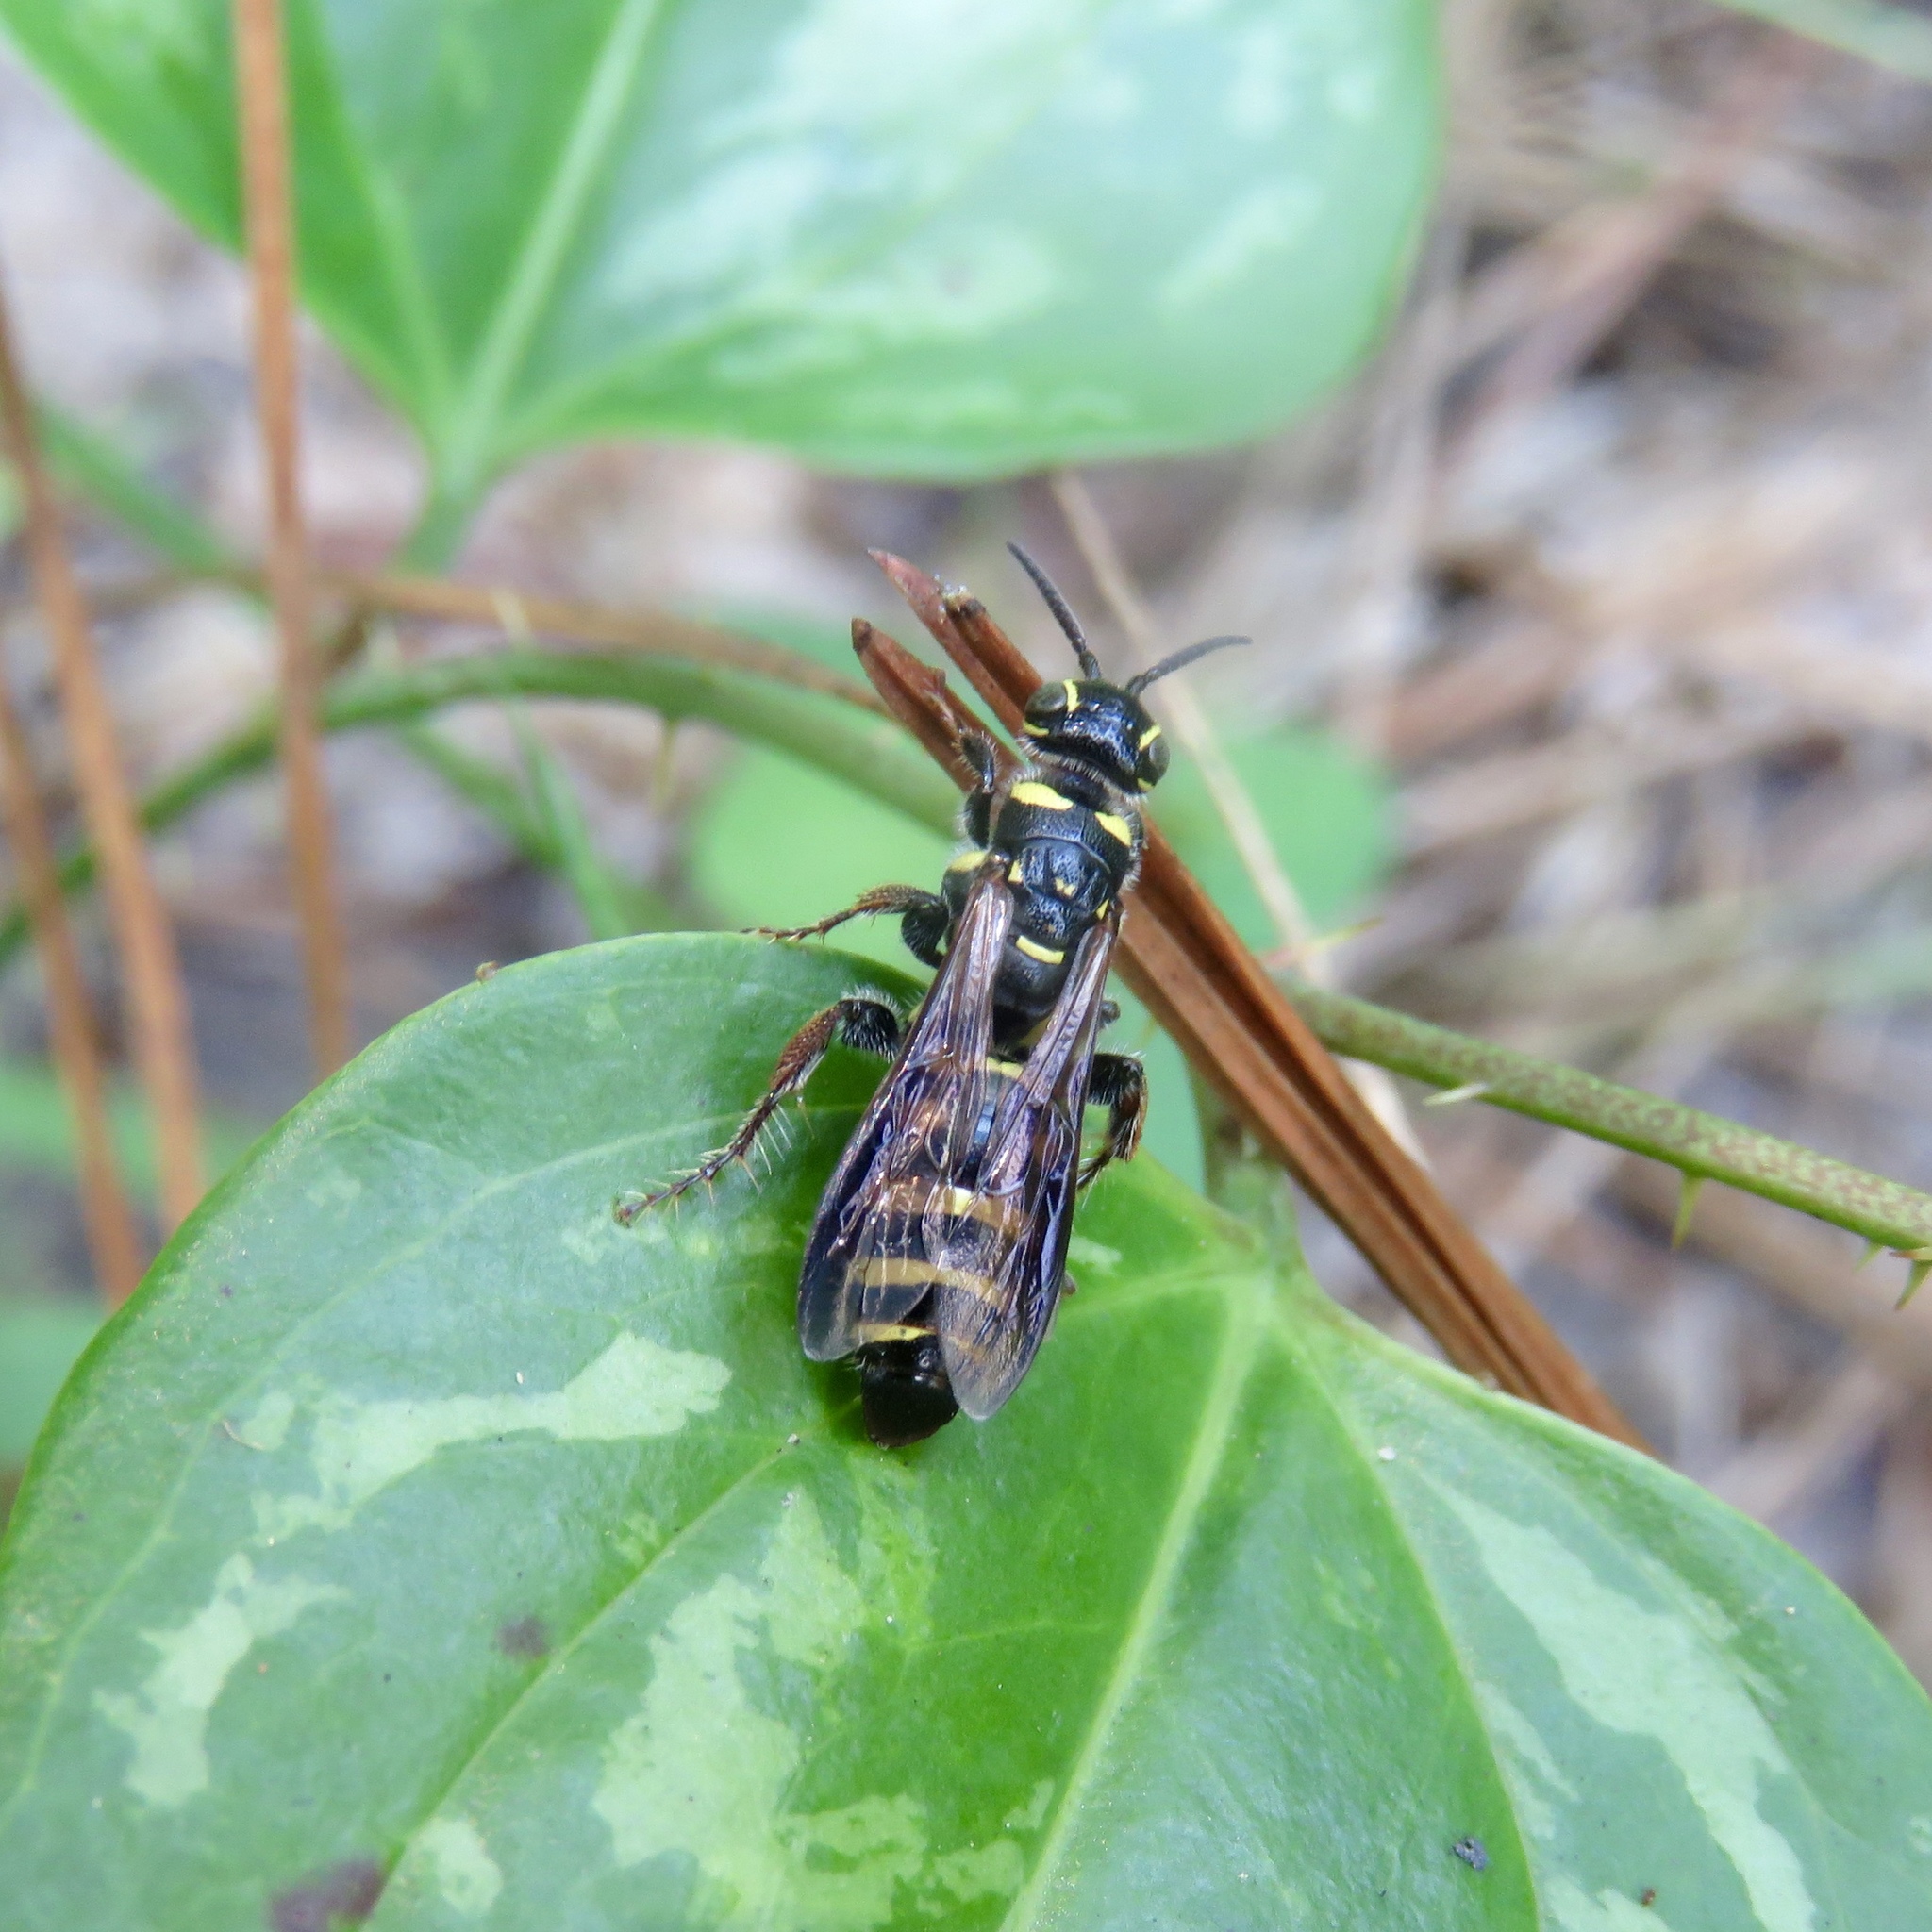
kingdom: Animalia
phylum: Arthropoda
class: Insecta
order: Hymenoptera
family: Tiphiidae
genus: Myzinum
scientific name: Myzinum maculatum
